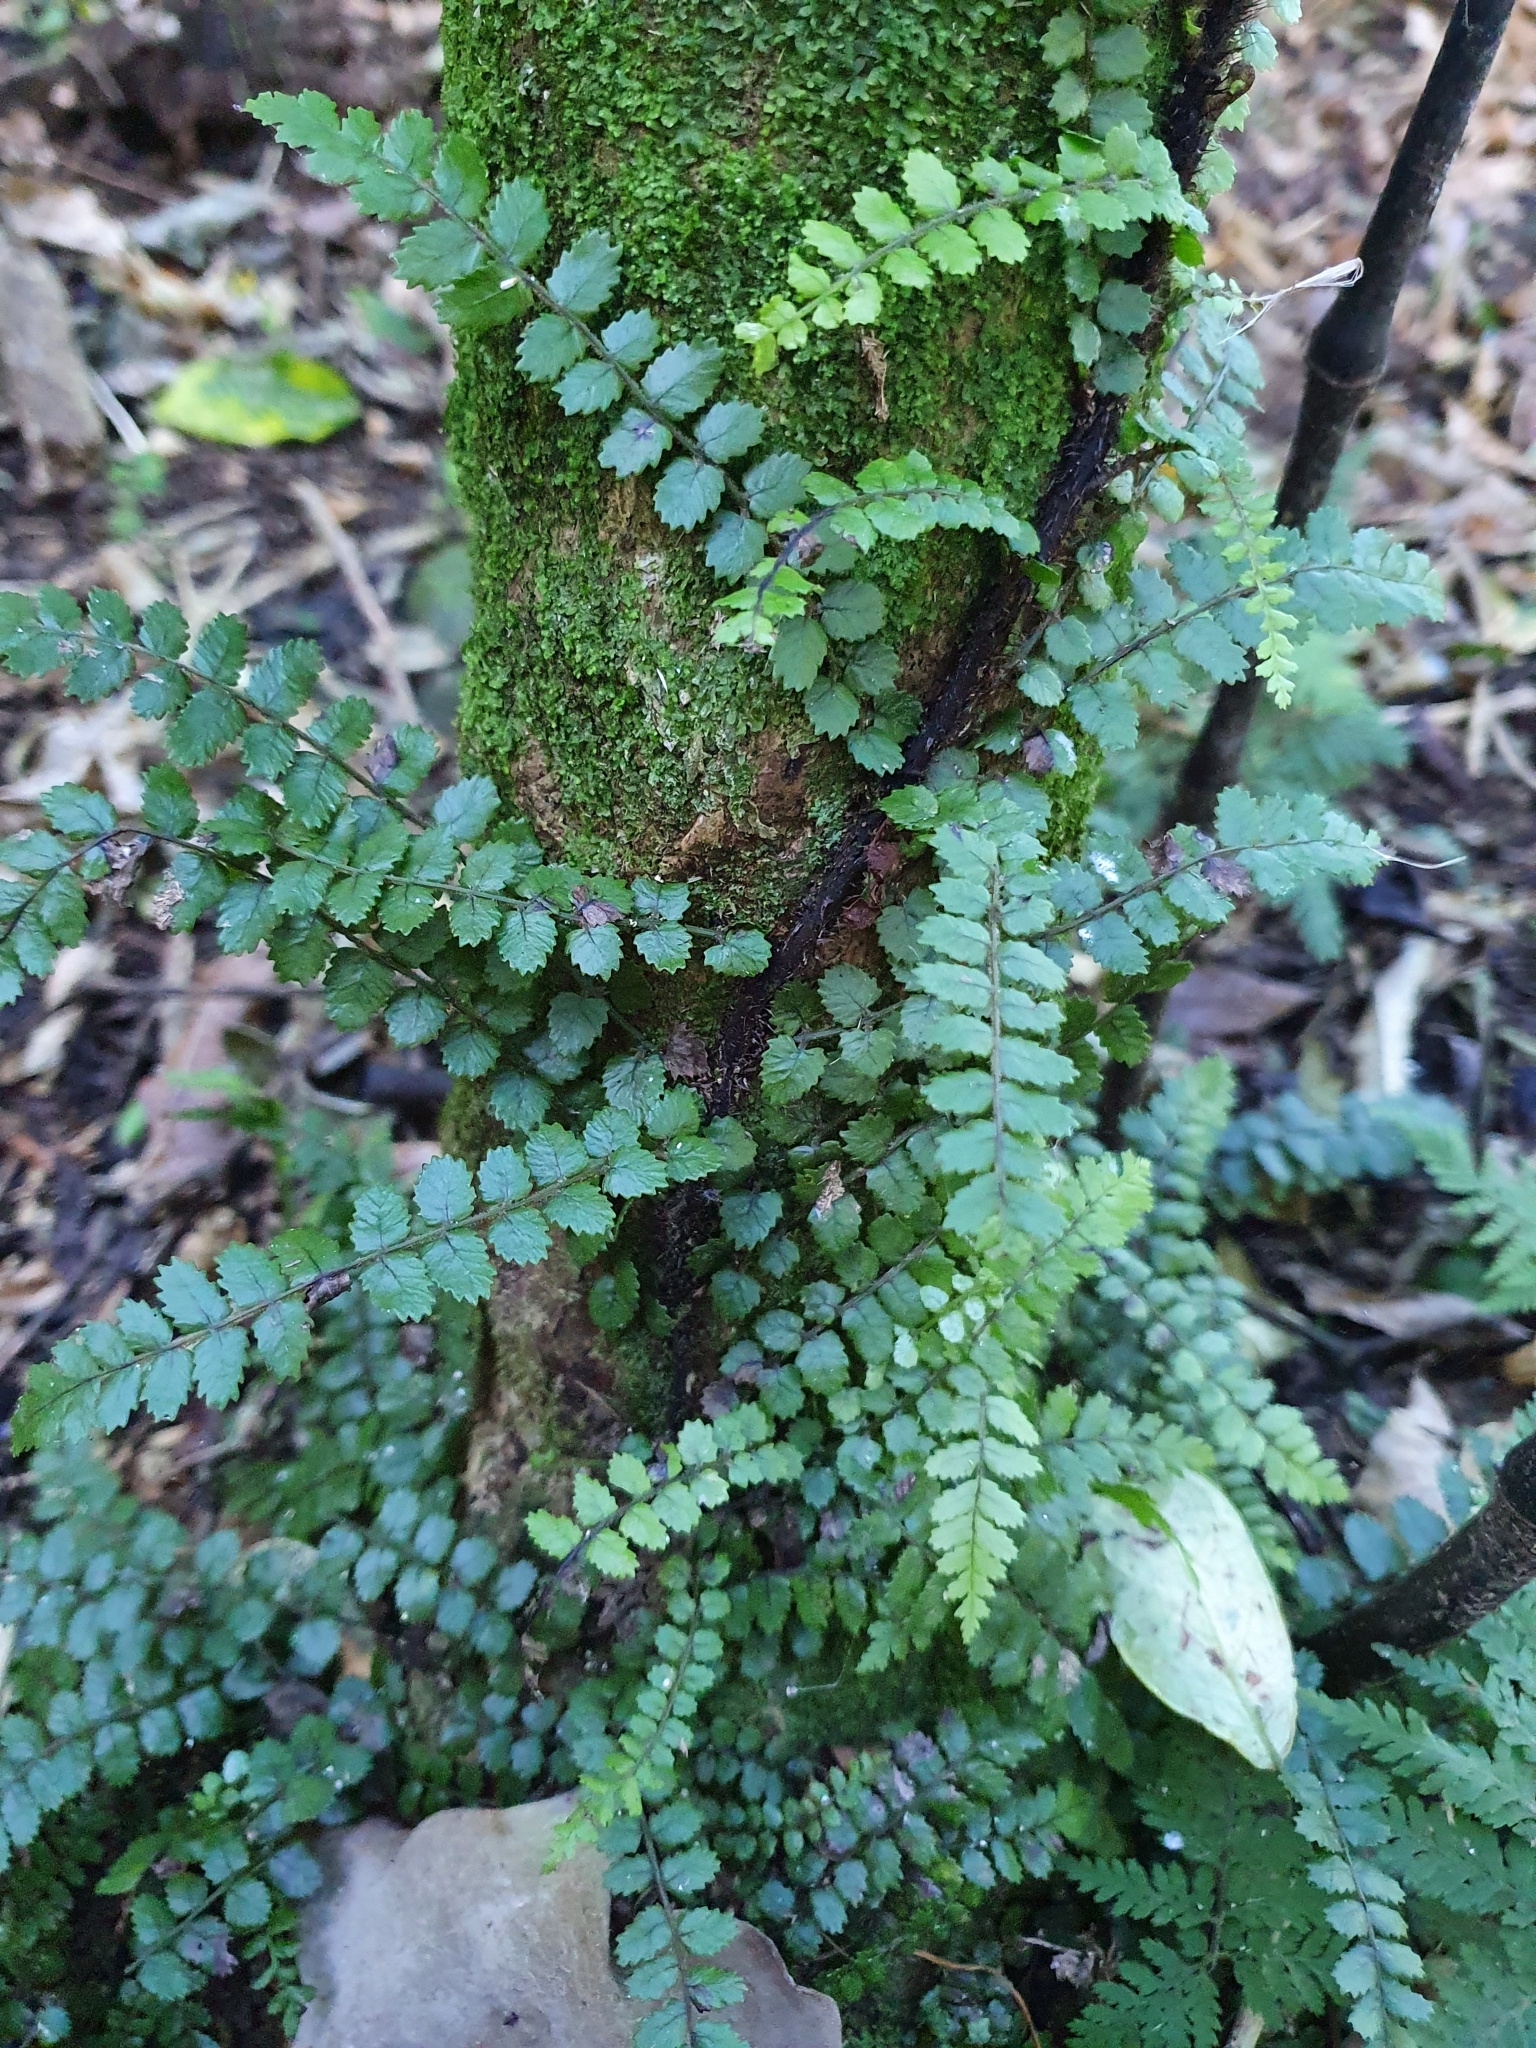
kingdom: Plantae
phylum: Tracheophyta
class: Polypodiopsida
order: Polypodiales
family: Blechnaceae
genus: Icarus
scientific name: Icarus filiformis
